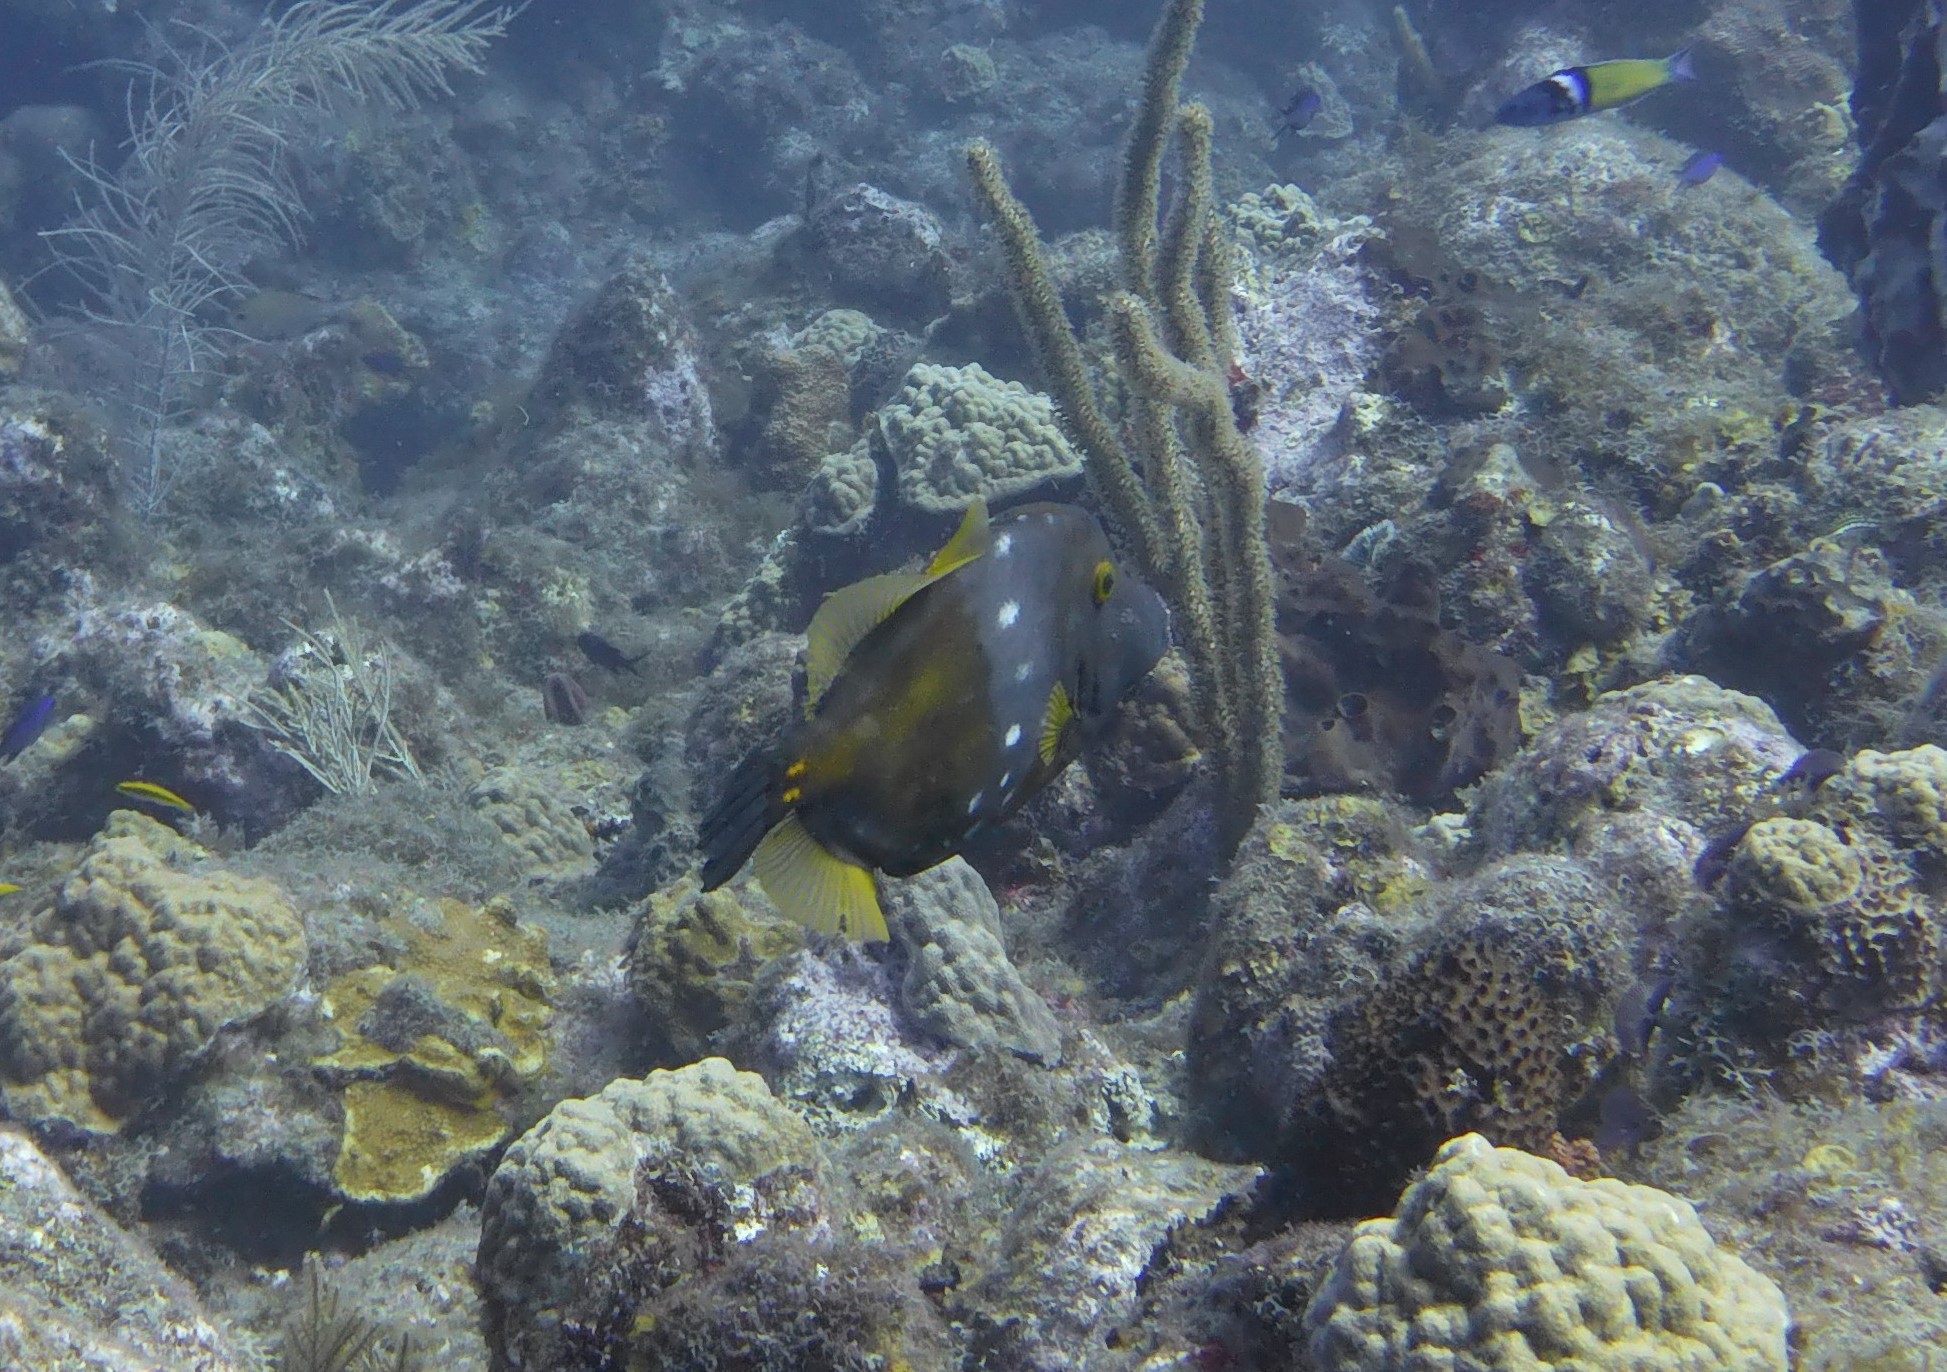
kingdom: Animalia
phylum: Chordata
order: Tetraodontiformes
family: Monacanthidae
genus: Cantherhines
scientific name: Cantherhines macrocerus
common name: Whitespotted filefish
